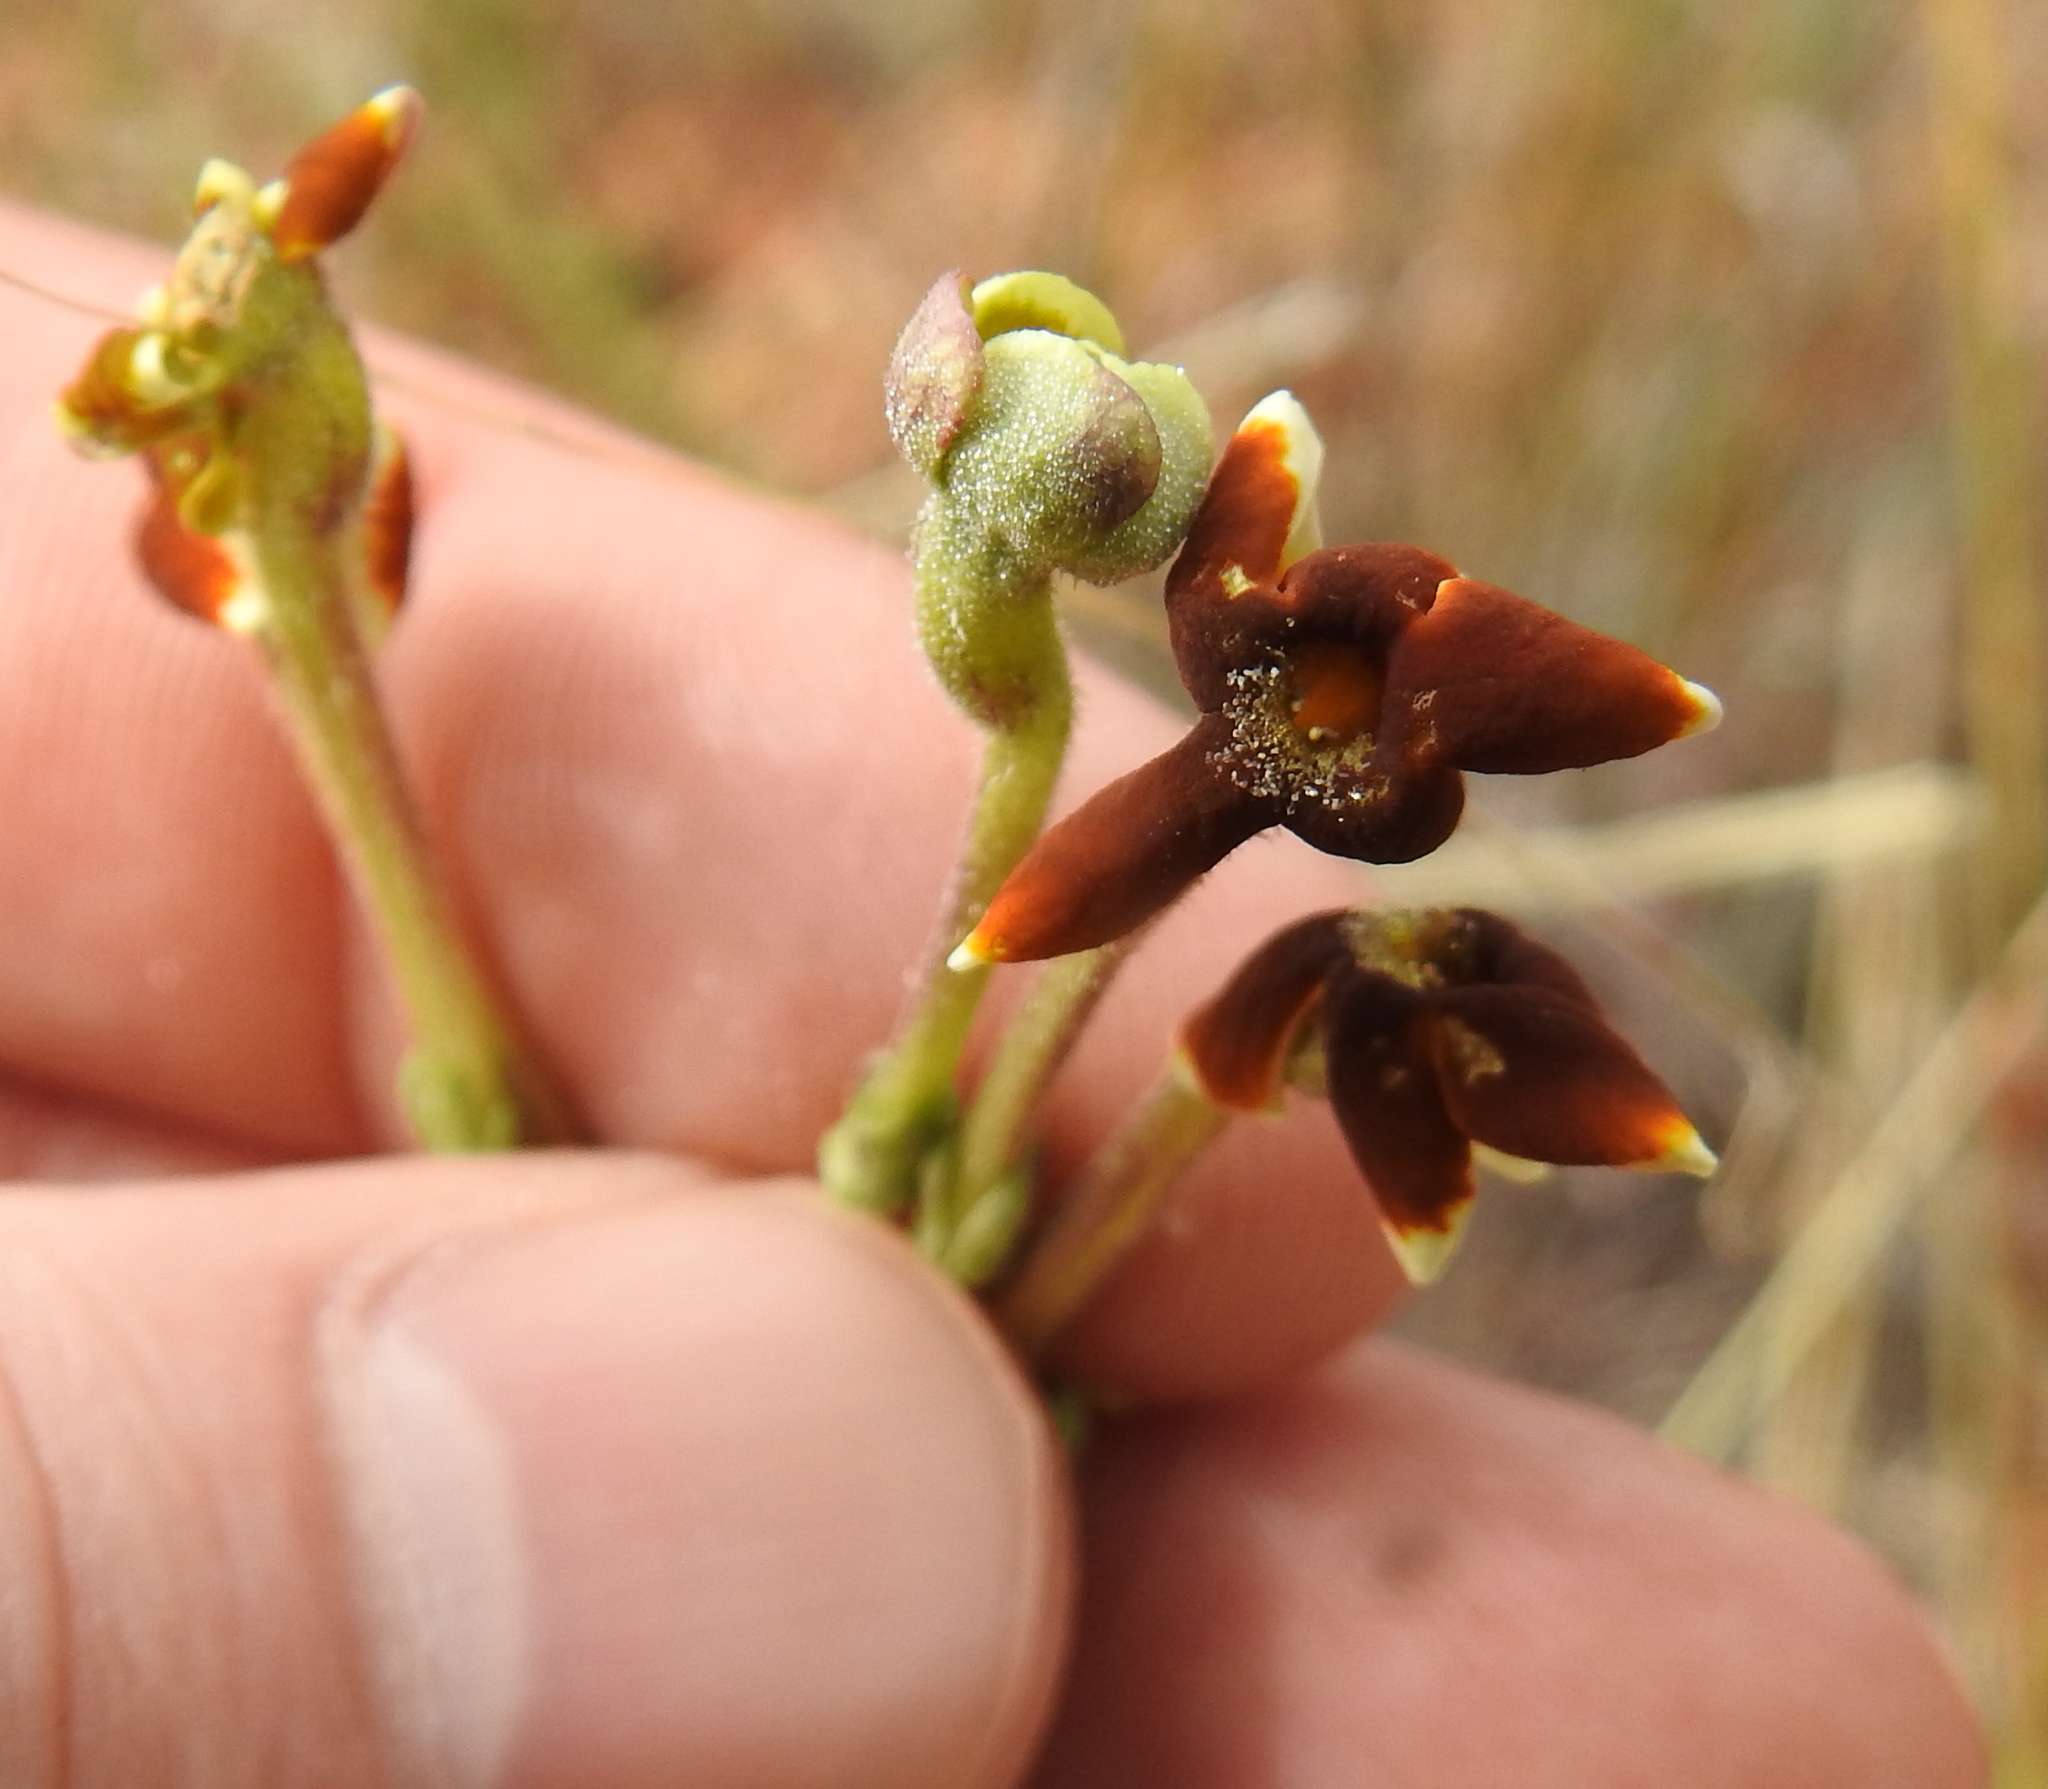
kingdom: Plantae
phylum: Tracheophyta
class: Magnoliopsida
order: Lamiales
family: Scrophulariaceae
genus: Jamesbrittenia
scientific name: Jamesbrittenia burkeana
